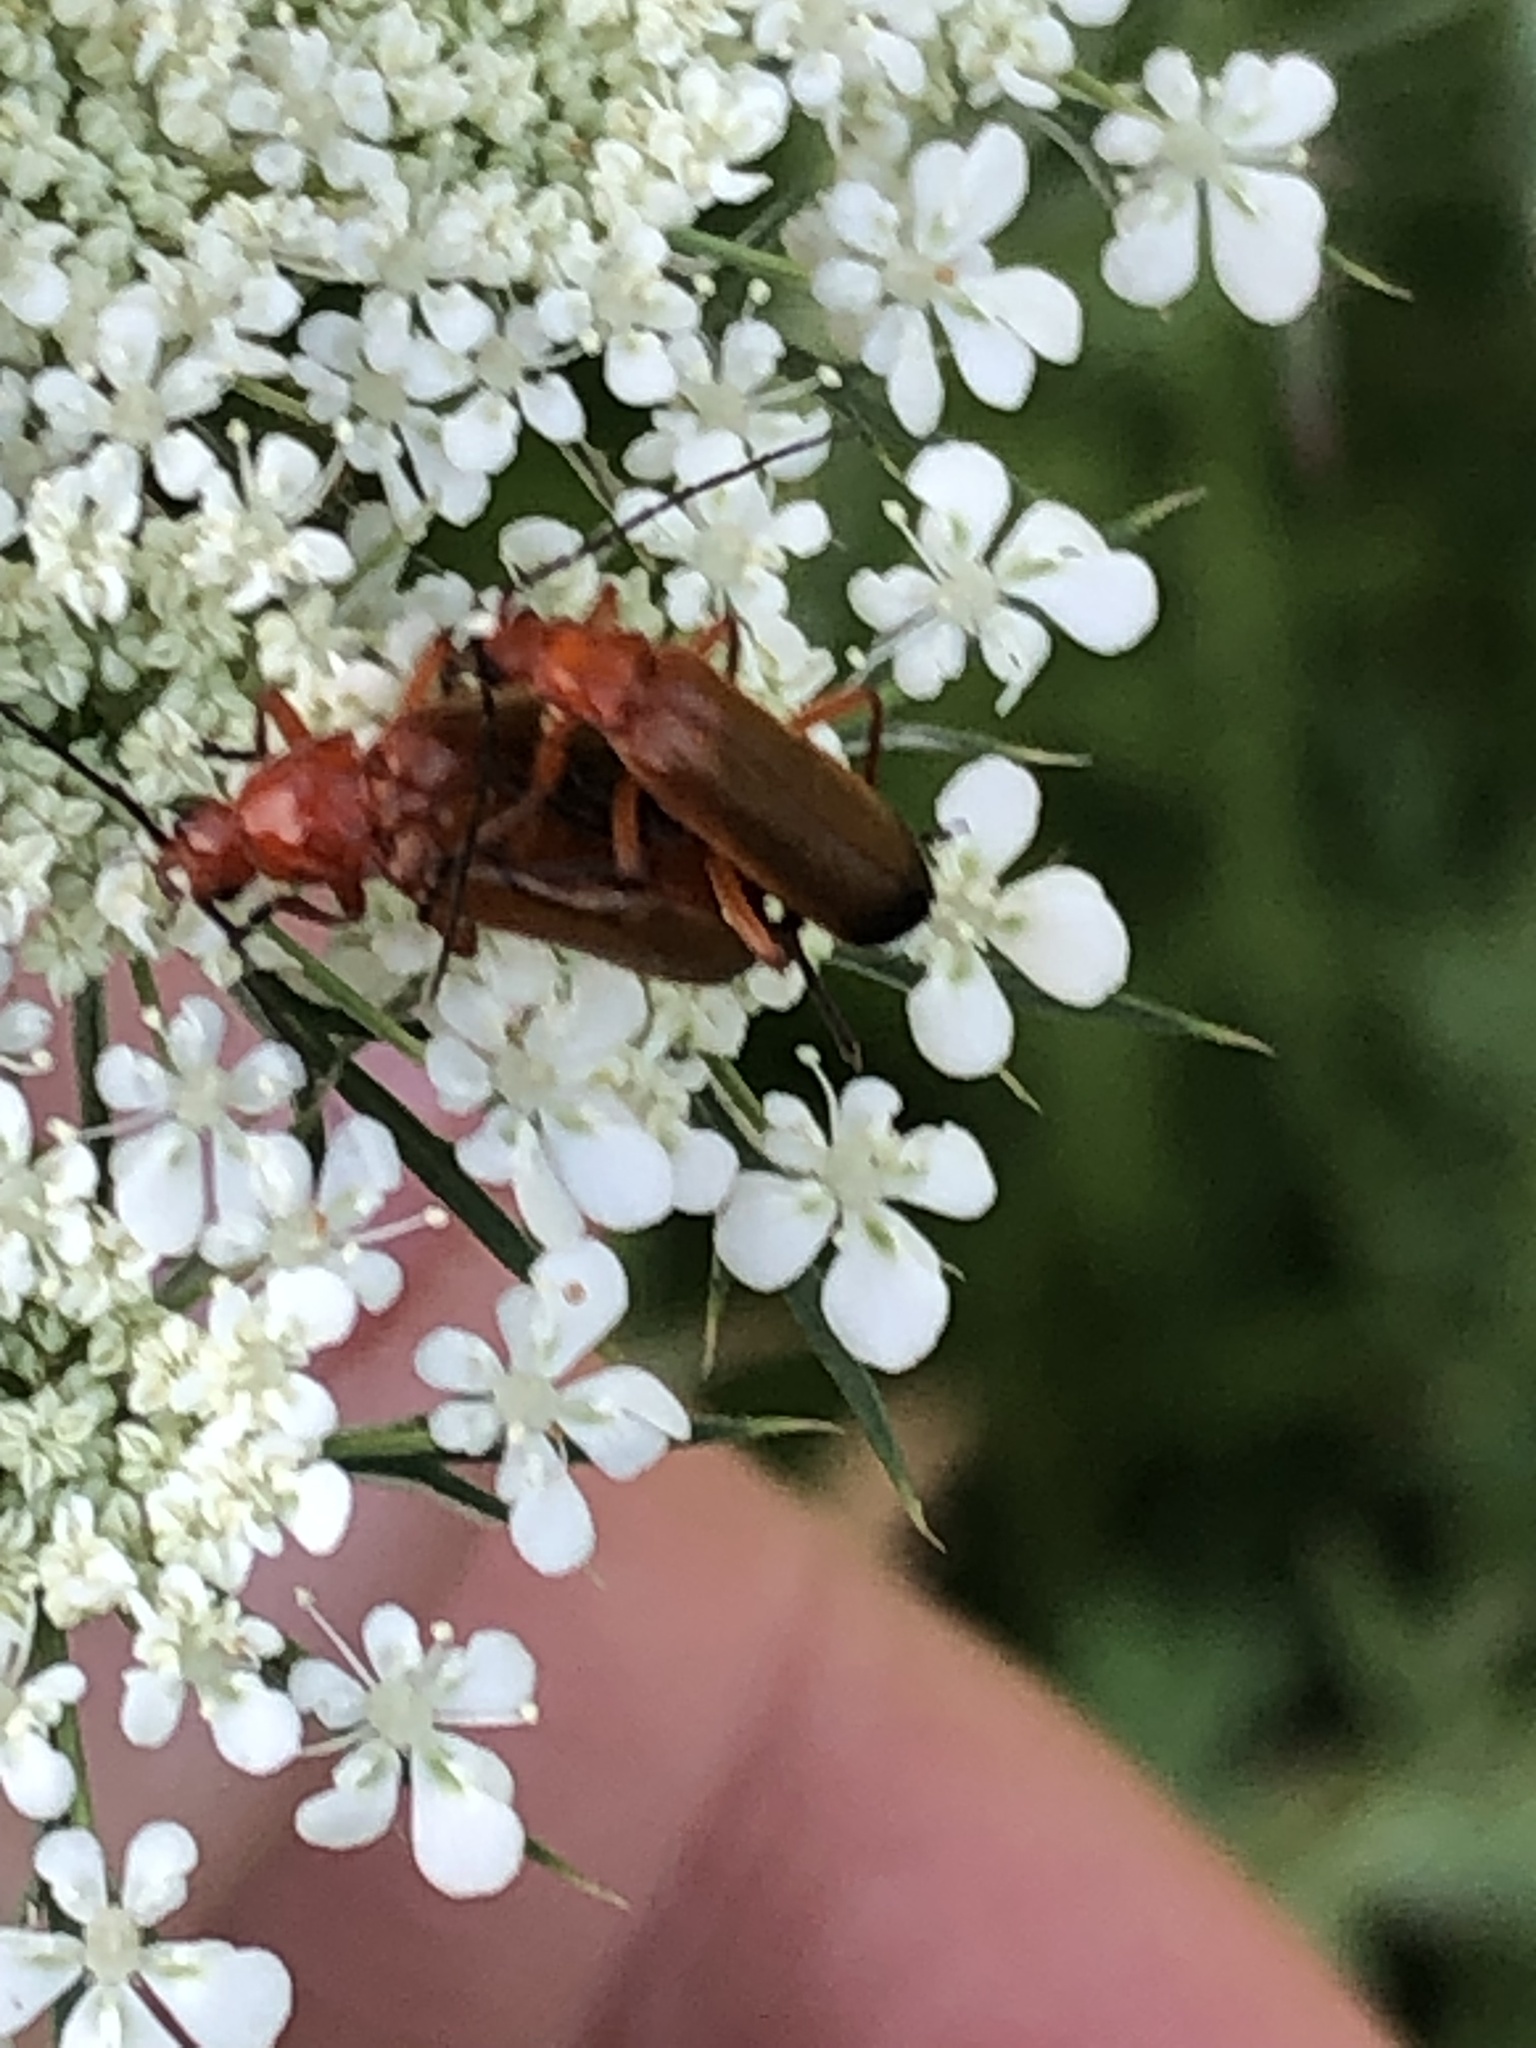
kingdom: Animalia
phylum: Arthropoda
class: Insecta
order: Coleoptera
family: Cantharidae
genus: Rhagonycha
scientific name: Rhagonycha fulva
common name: Common red soldier beetle
